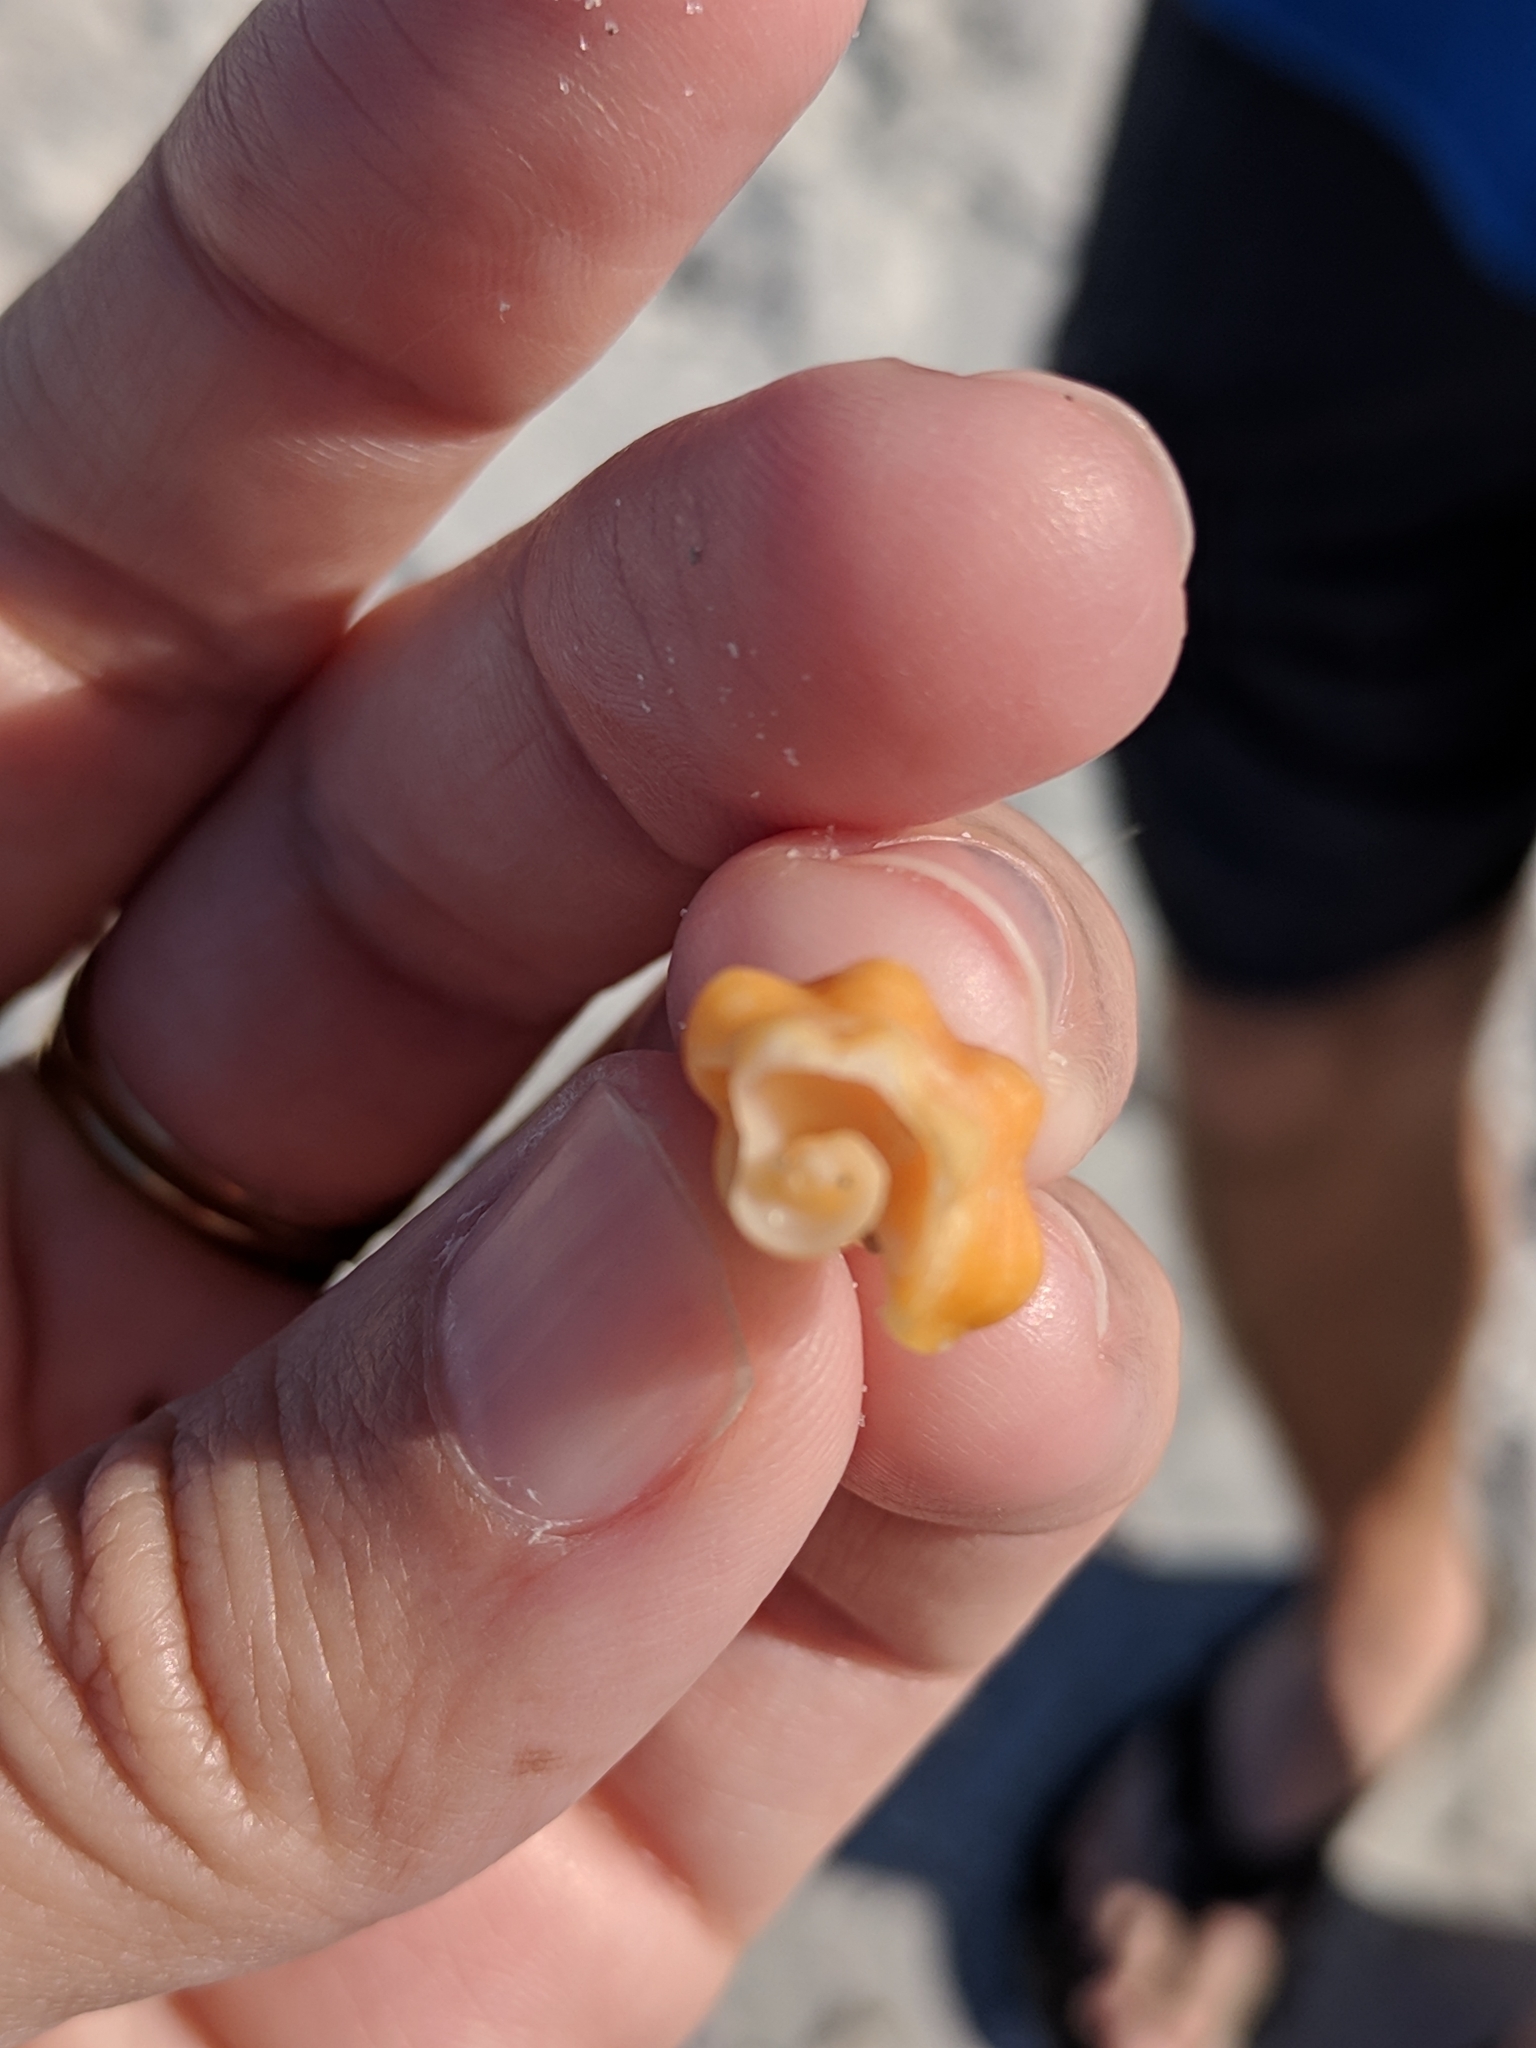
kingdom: Animalia
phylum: Mollusca
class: Gastropoda
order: Neogastropoda
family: Fasciolariidae
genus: Triplofusus
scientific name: Triplofusus giganteus
